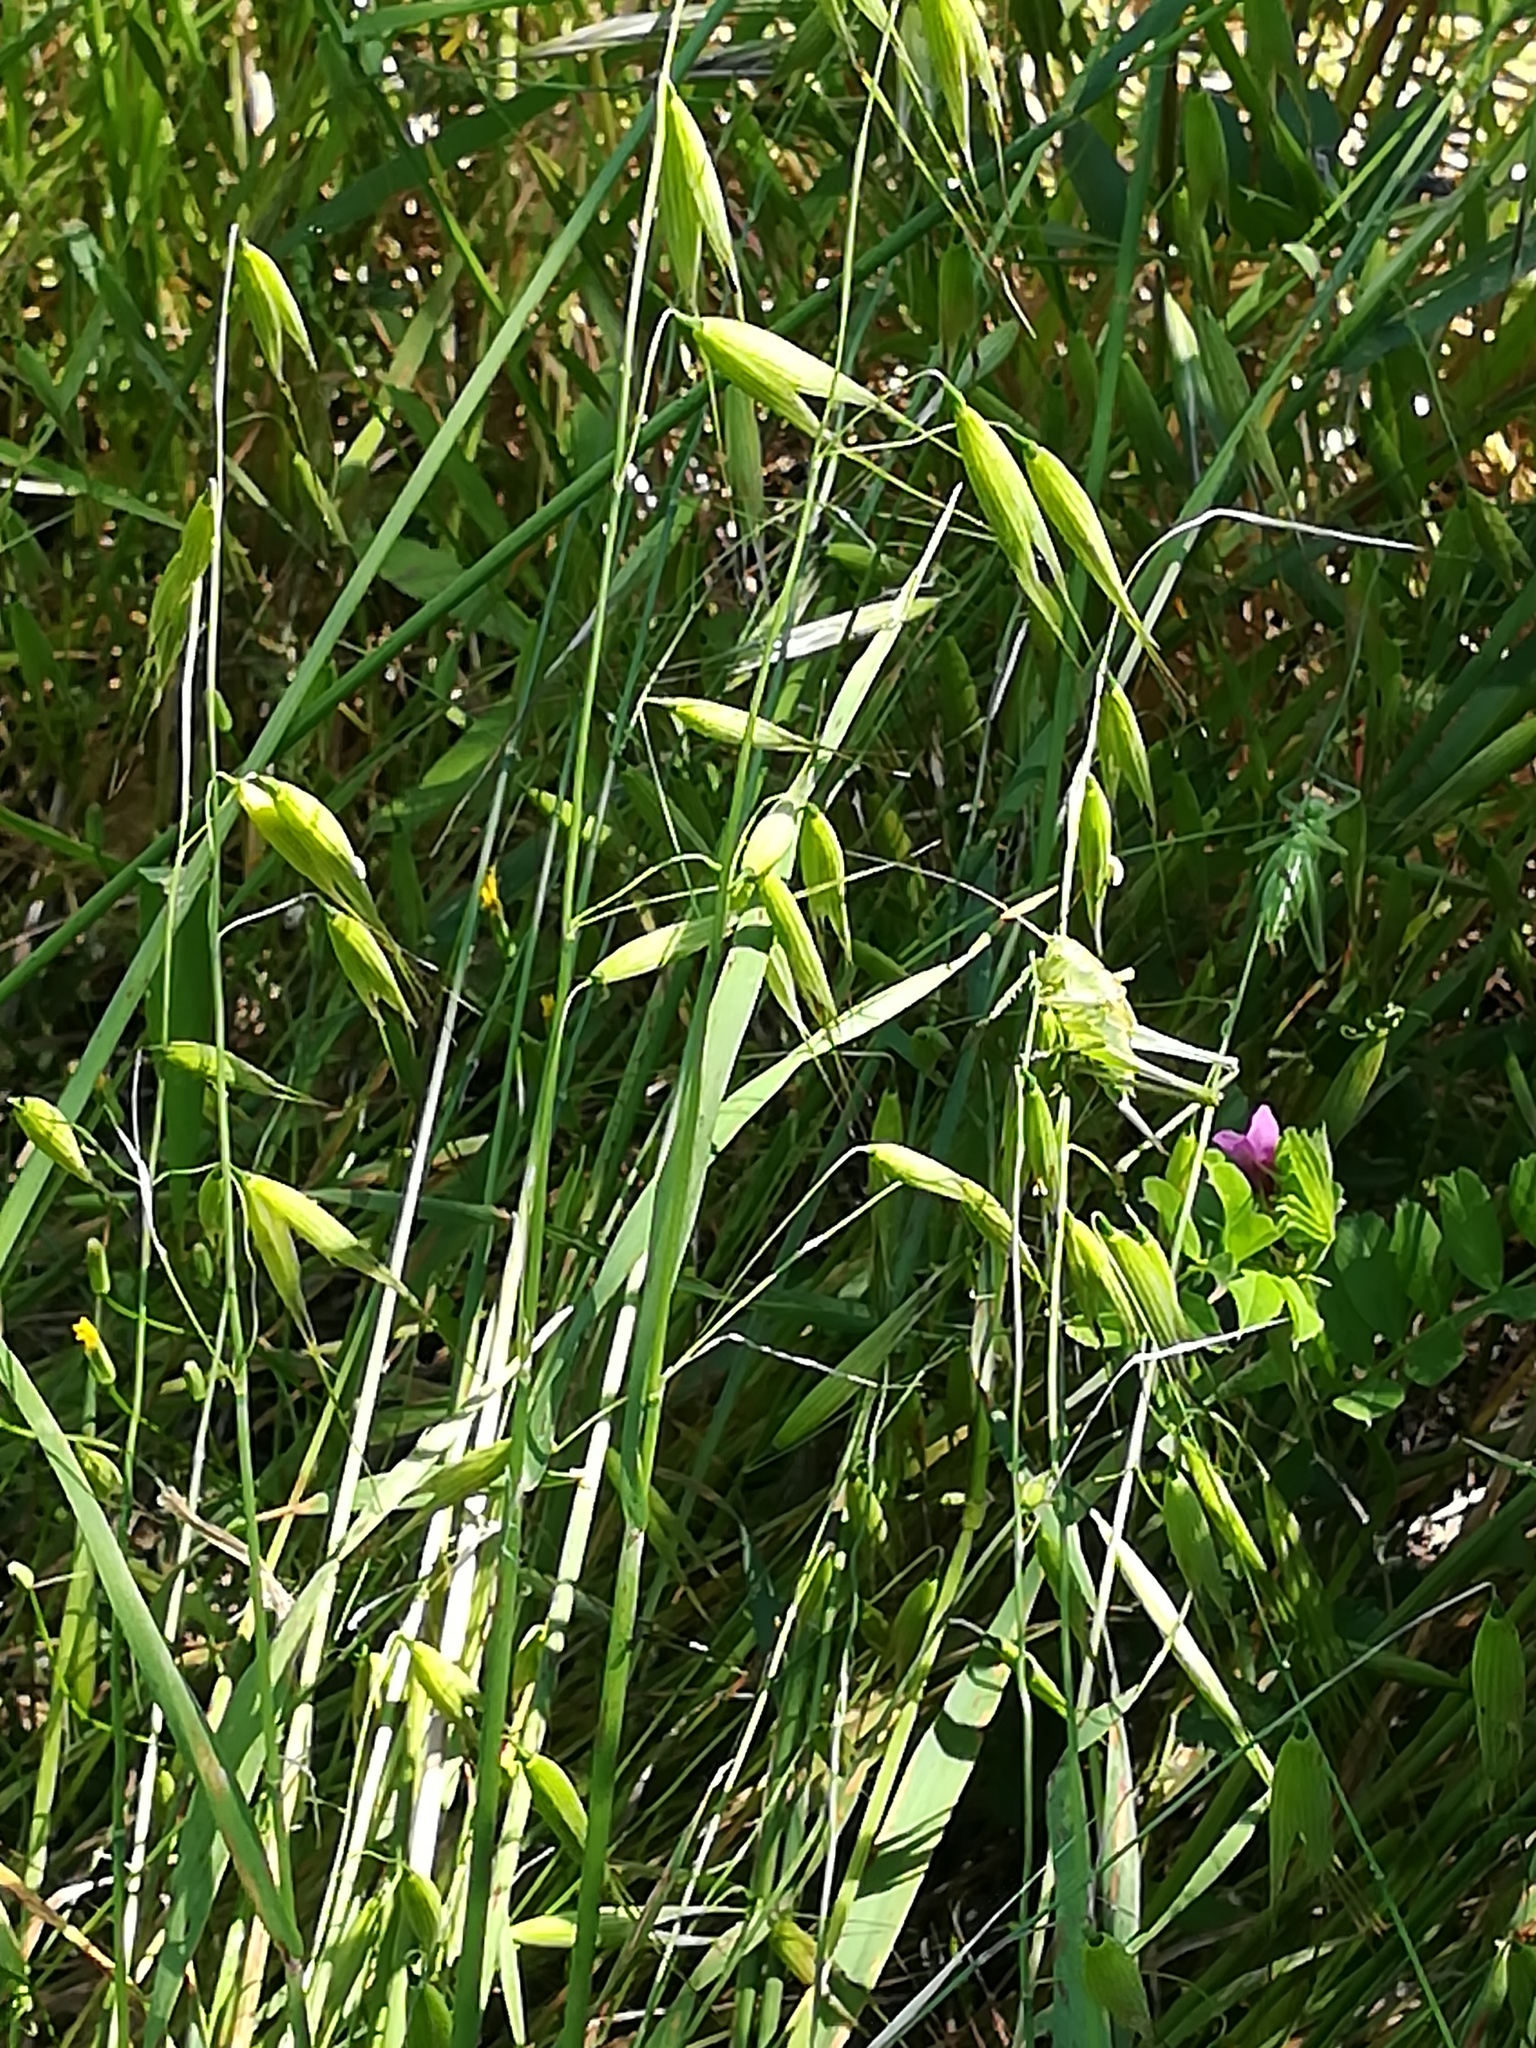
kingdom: Animalia
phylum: Arthropoda
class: Insecta
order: Orthoptera
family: Tettigoniidae
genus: Tettigonia
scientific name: Tettigonia viridissima
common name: Great green bush-cricket
